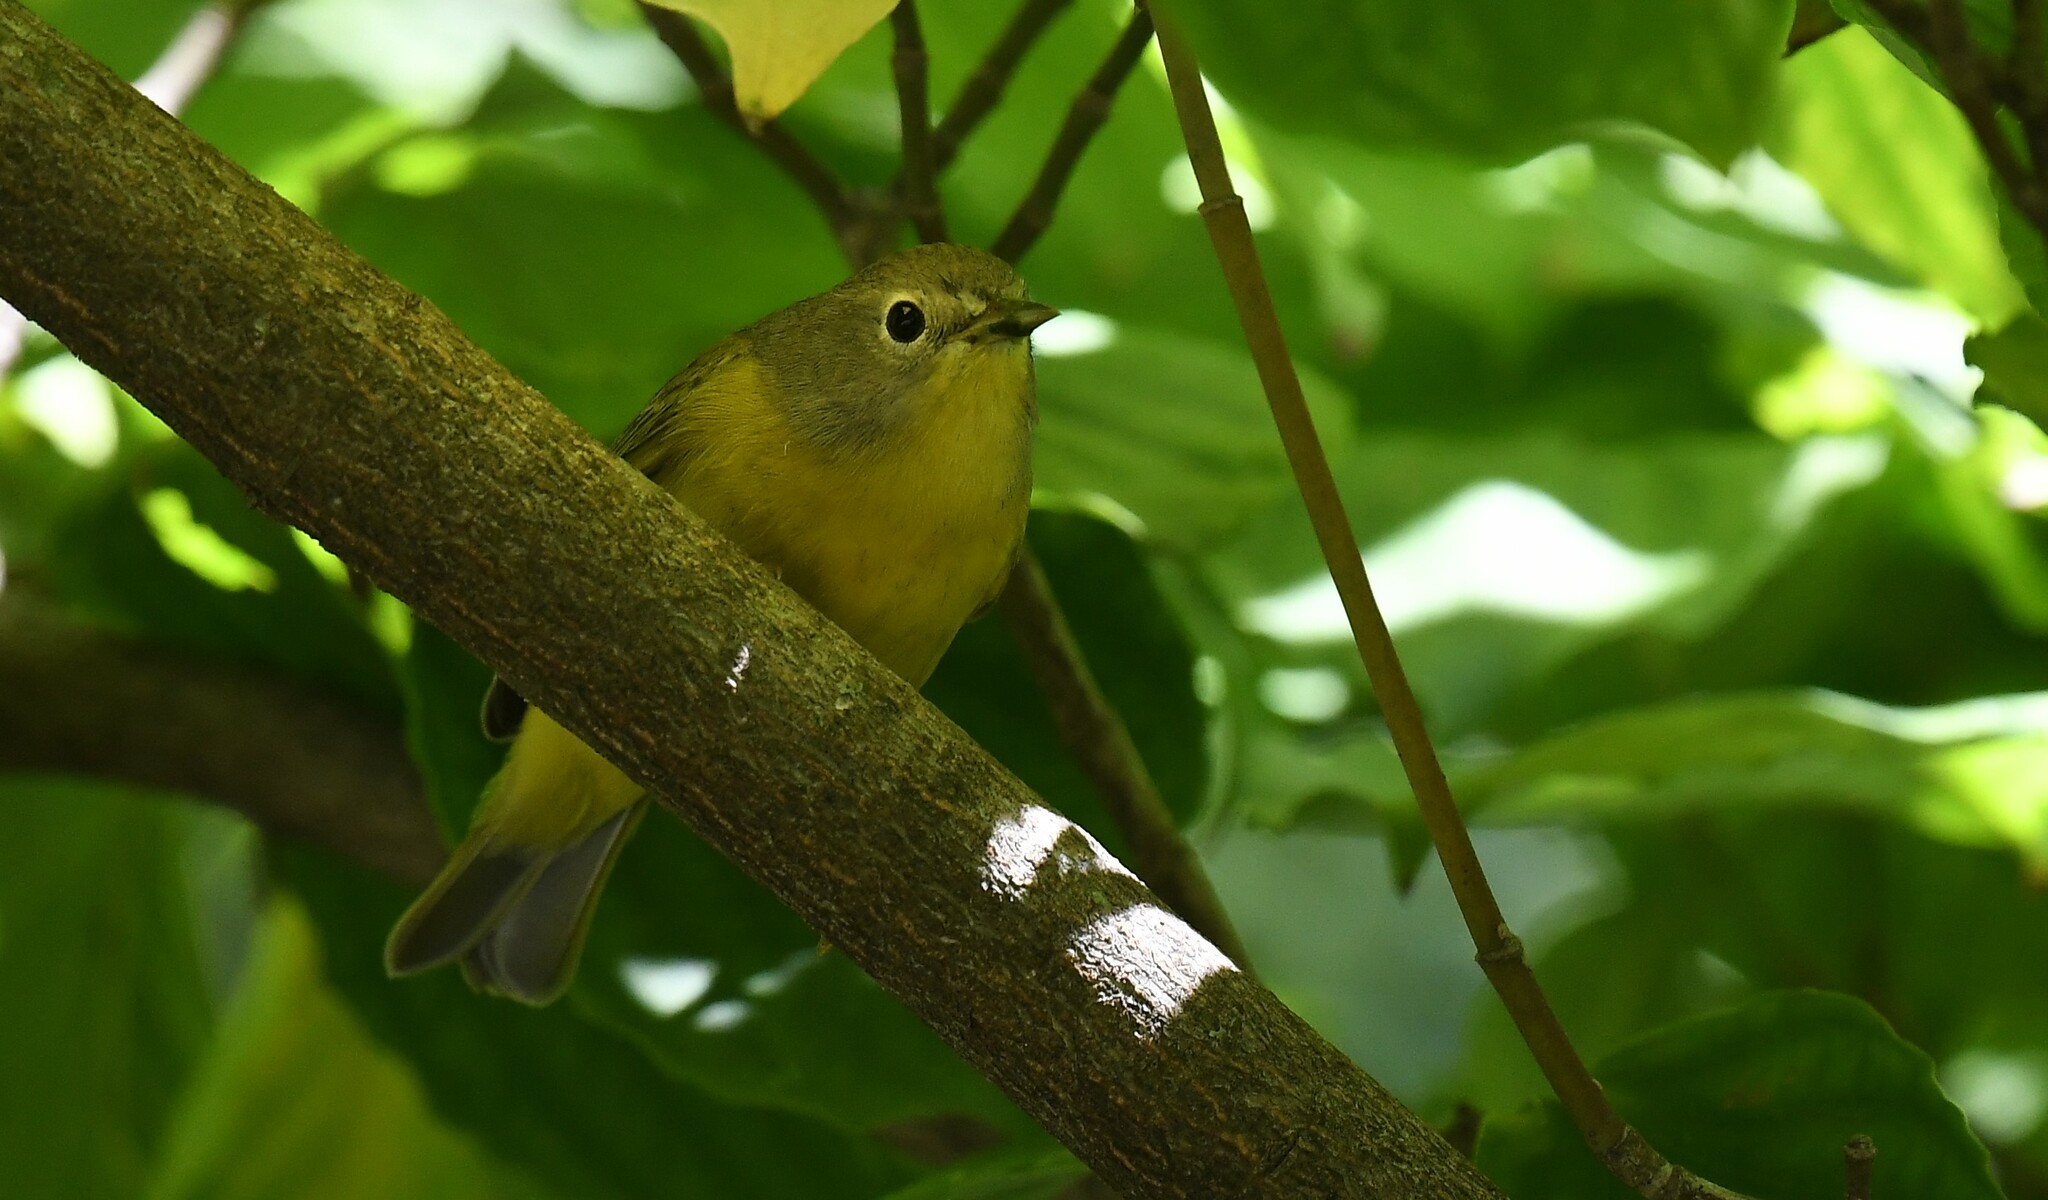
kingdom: Animalia
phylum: Chordata
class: Aves
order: Passeriformes
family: Parulidae
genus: Leiothlypis
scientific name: Leiothlypis ruficapilla
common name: Nashville warbler
